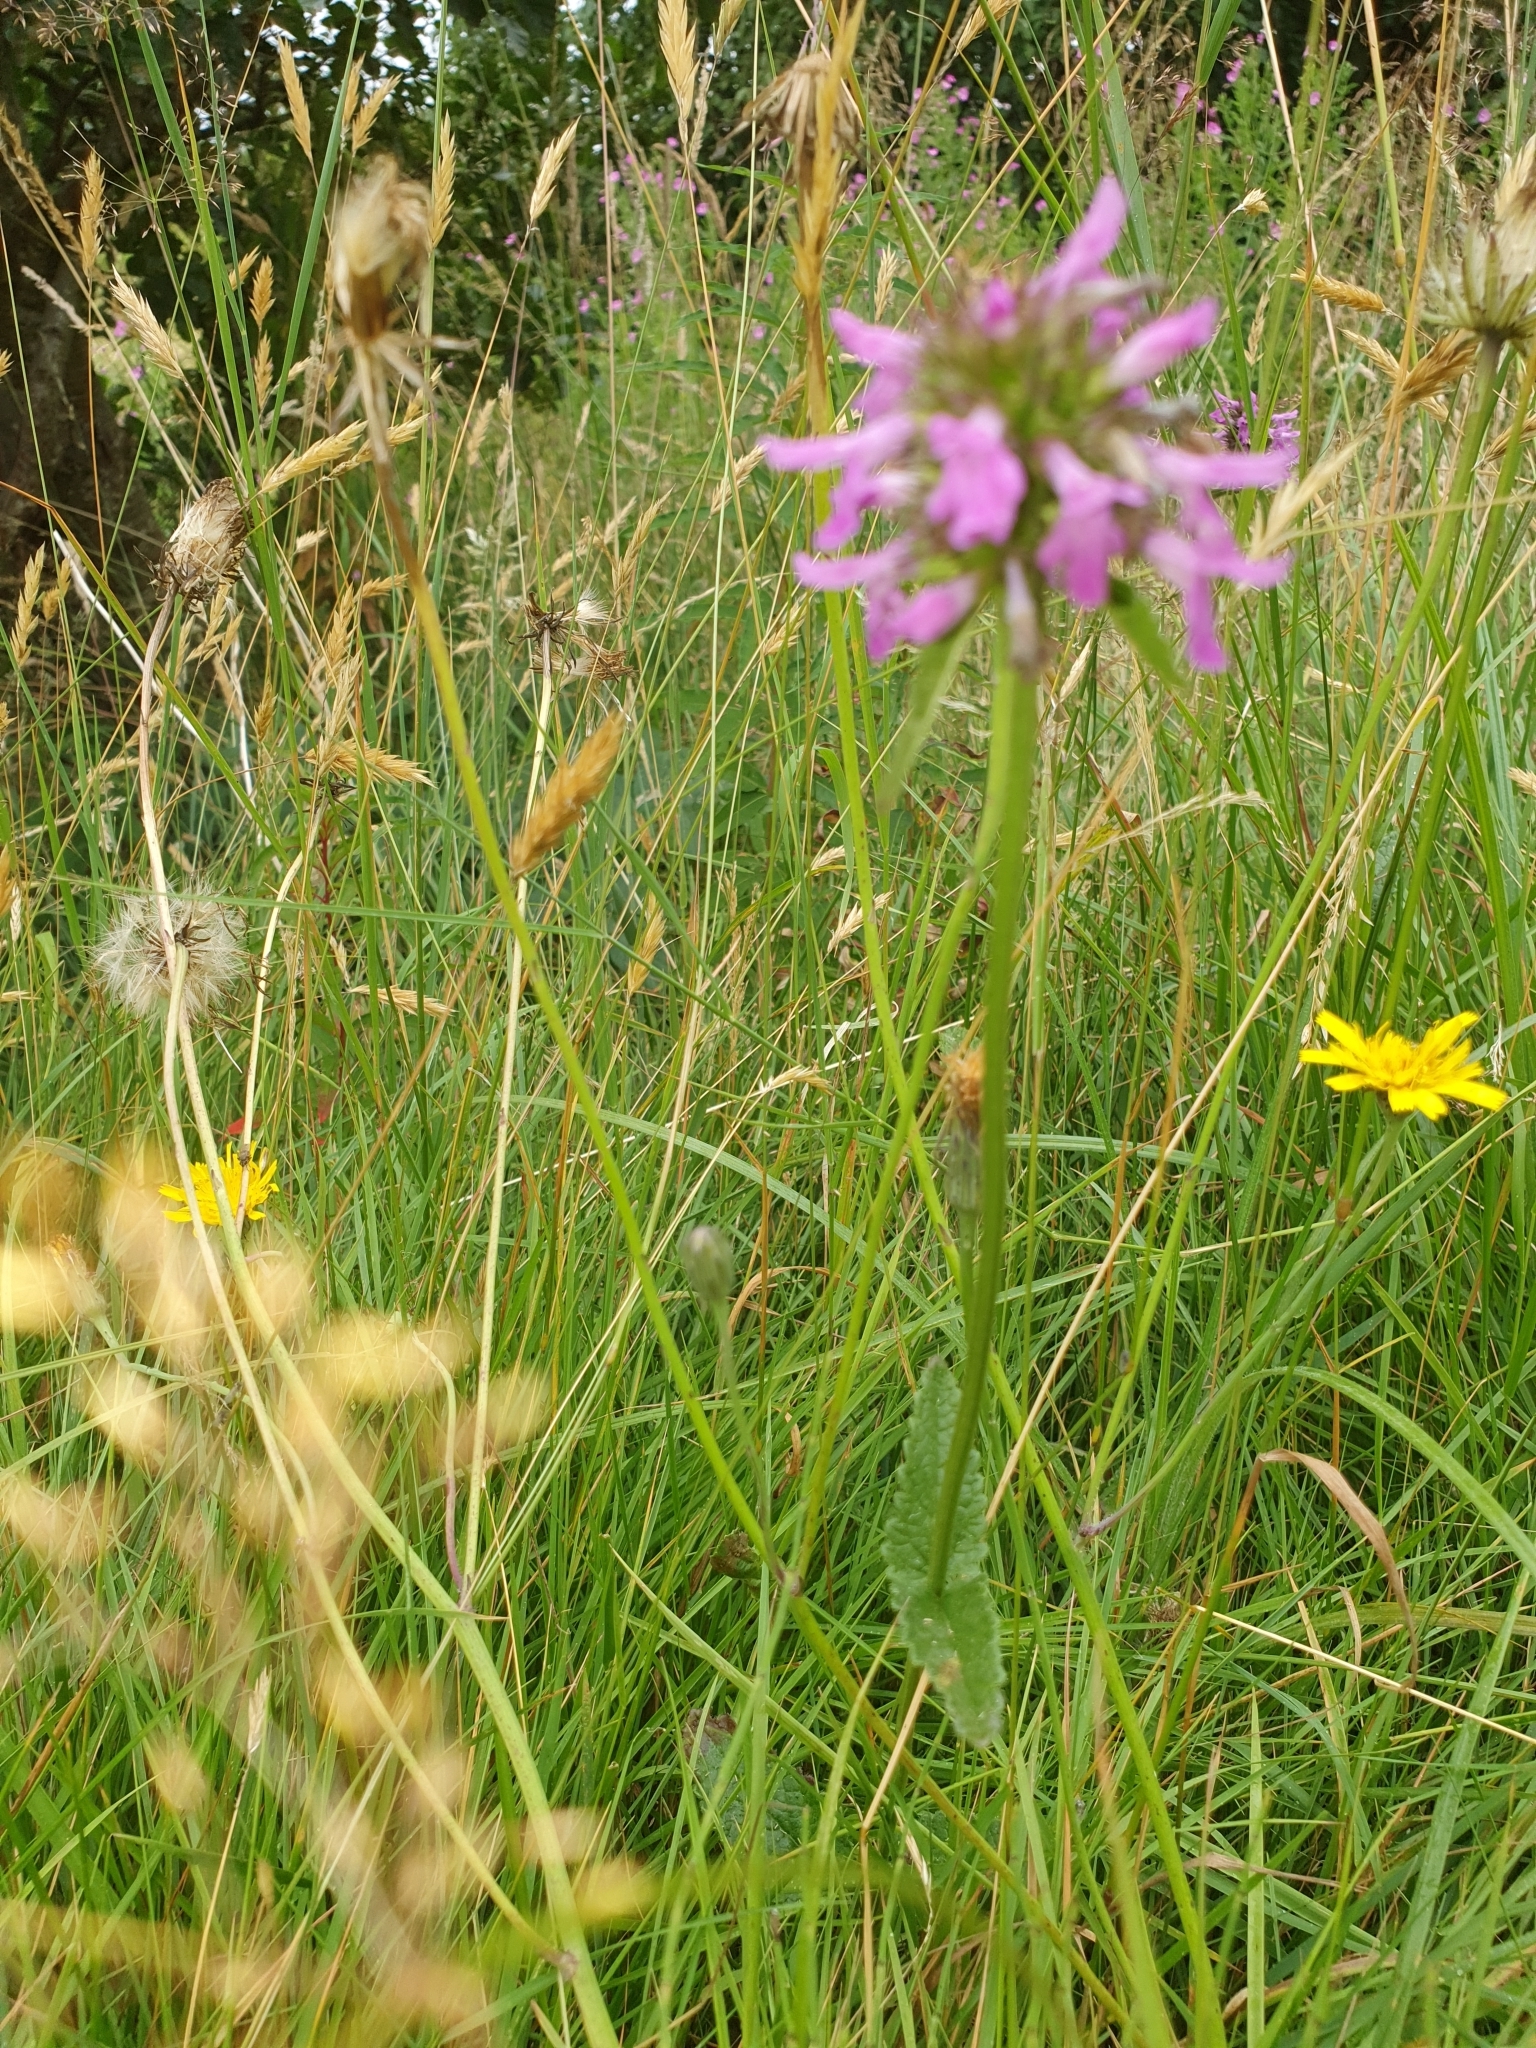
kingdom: Plantae
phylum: Tracheophyta
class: Magnoliopsida
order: Lamiales
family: Lamiaceae
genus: Betonica
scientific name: Betonica officinalis
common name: Bishop's-wort
